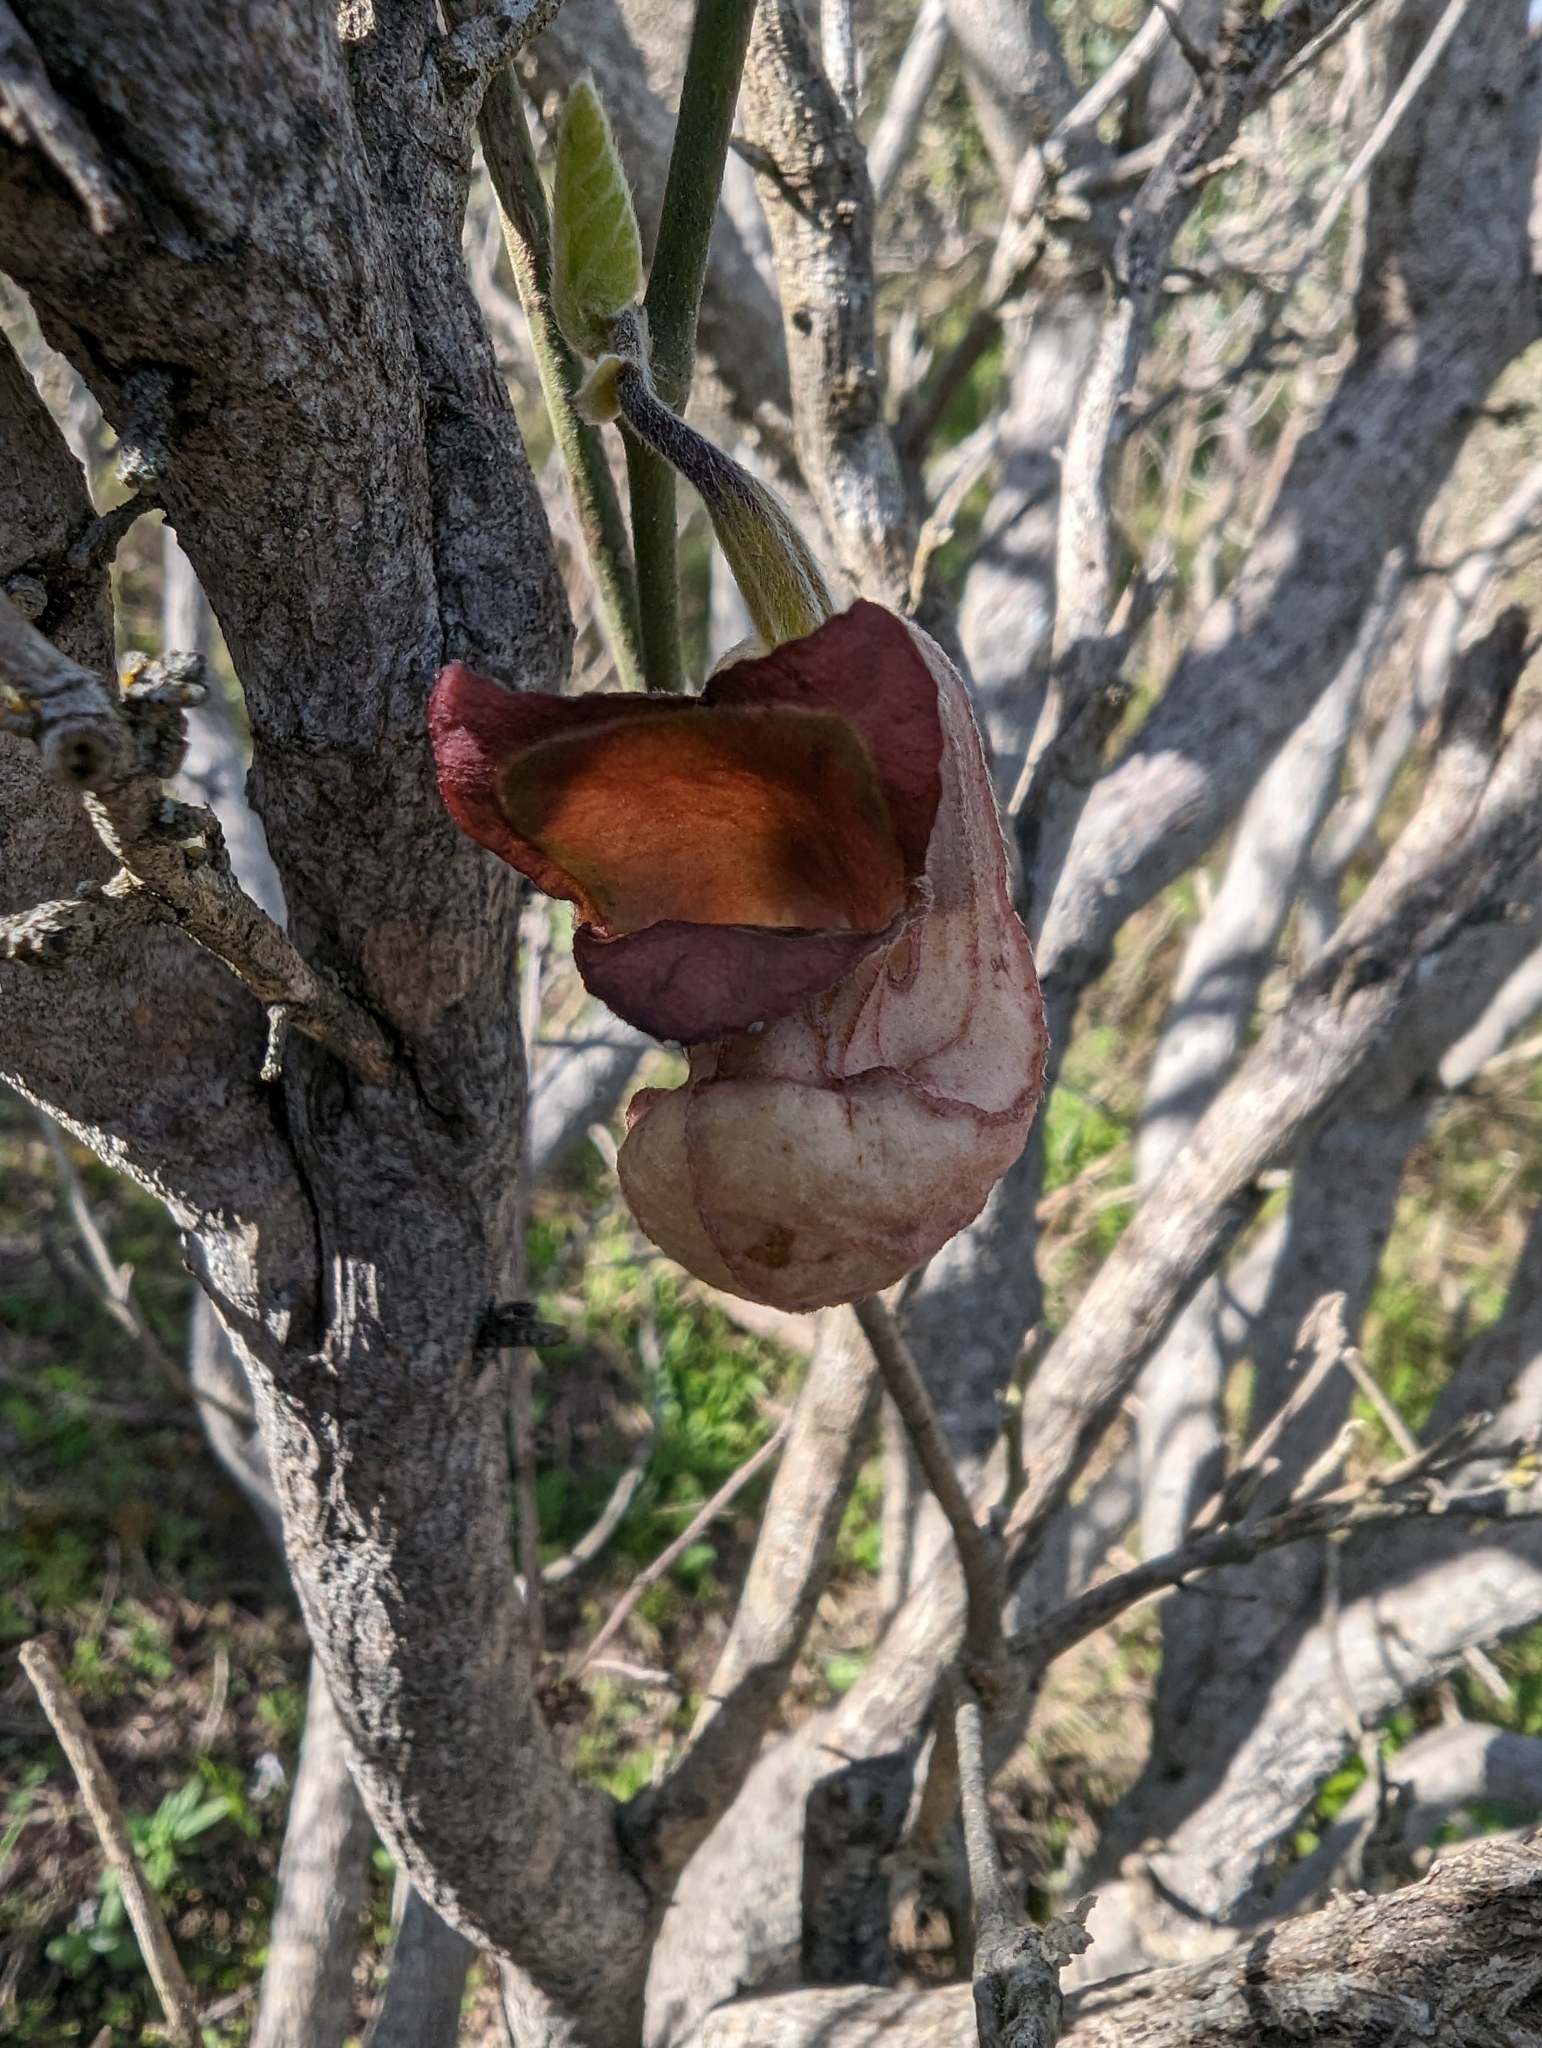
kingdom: Plantae
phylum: Tracheophyta
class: Magnoliopsida
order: Piperales
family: Aristolochiaceae
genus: Isotrema
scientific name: Isotrema californicum
